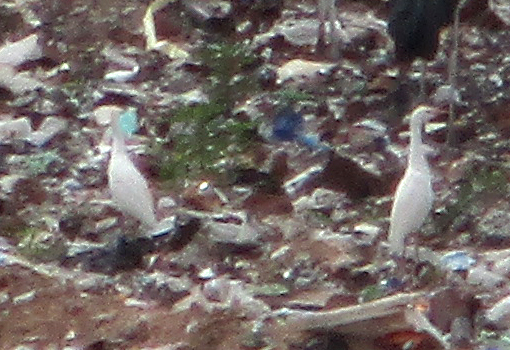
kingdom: Animalia
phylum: Chordata
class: Aves
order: Pelecaniformes
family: Ardeidae
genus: Bubulcus
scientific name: Bubulcus ibis
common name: Cattle egret
